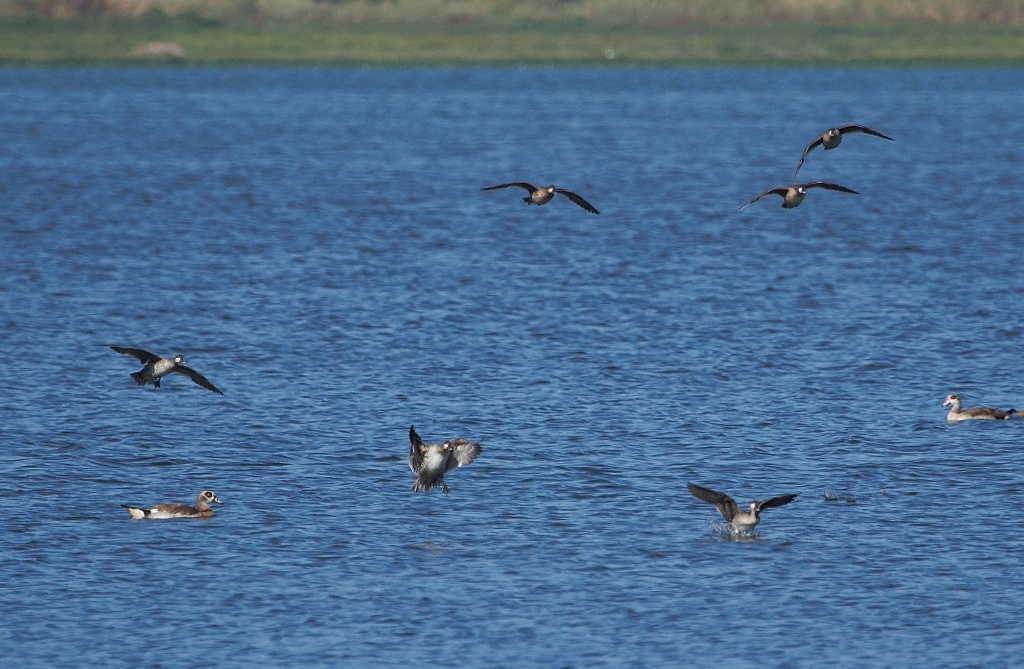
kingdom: Animalia
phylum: Chordata
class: Aves
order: Anseriformes
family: Anatidae
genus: Anas
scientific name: Anas erythrorhyncha
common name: Red-billed teal
